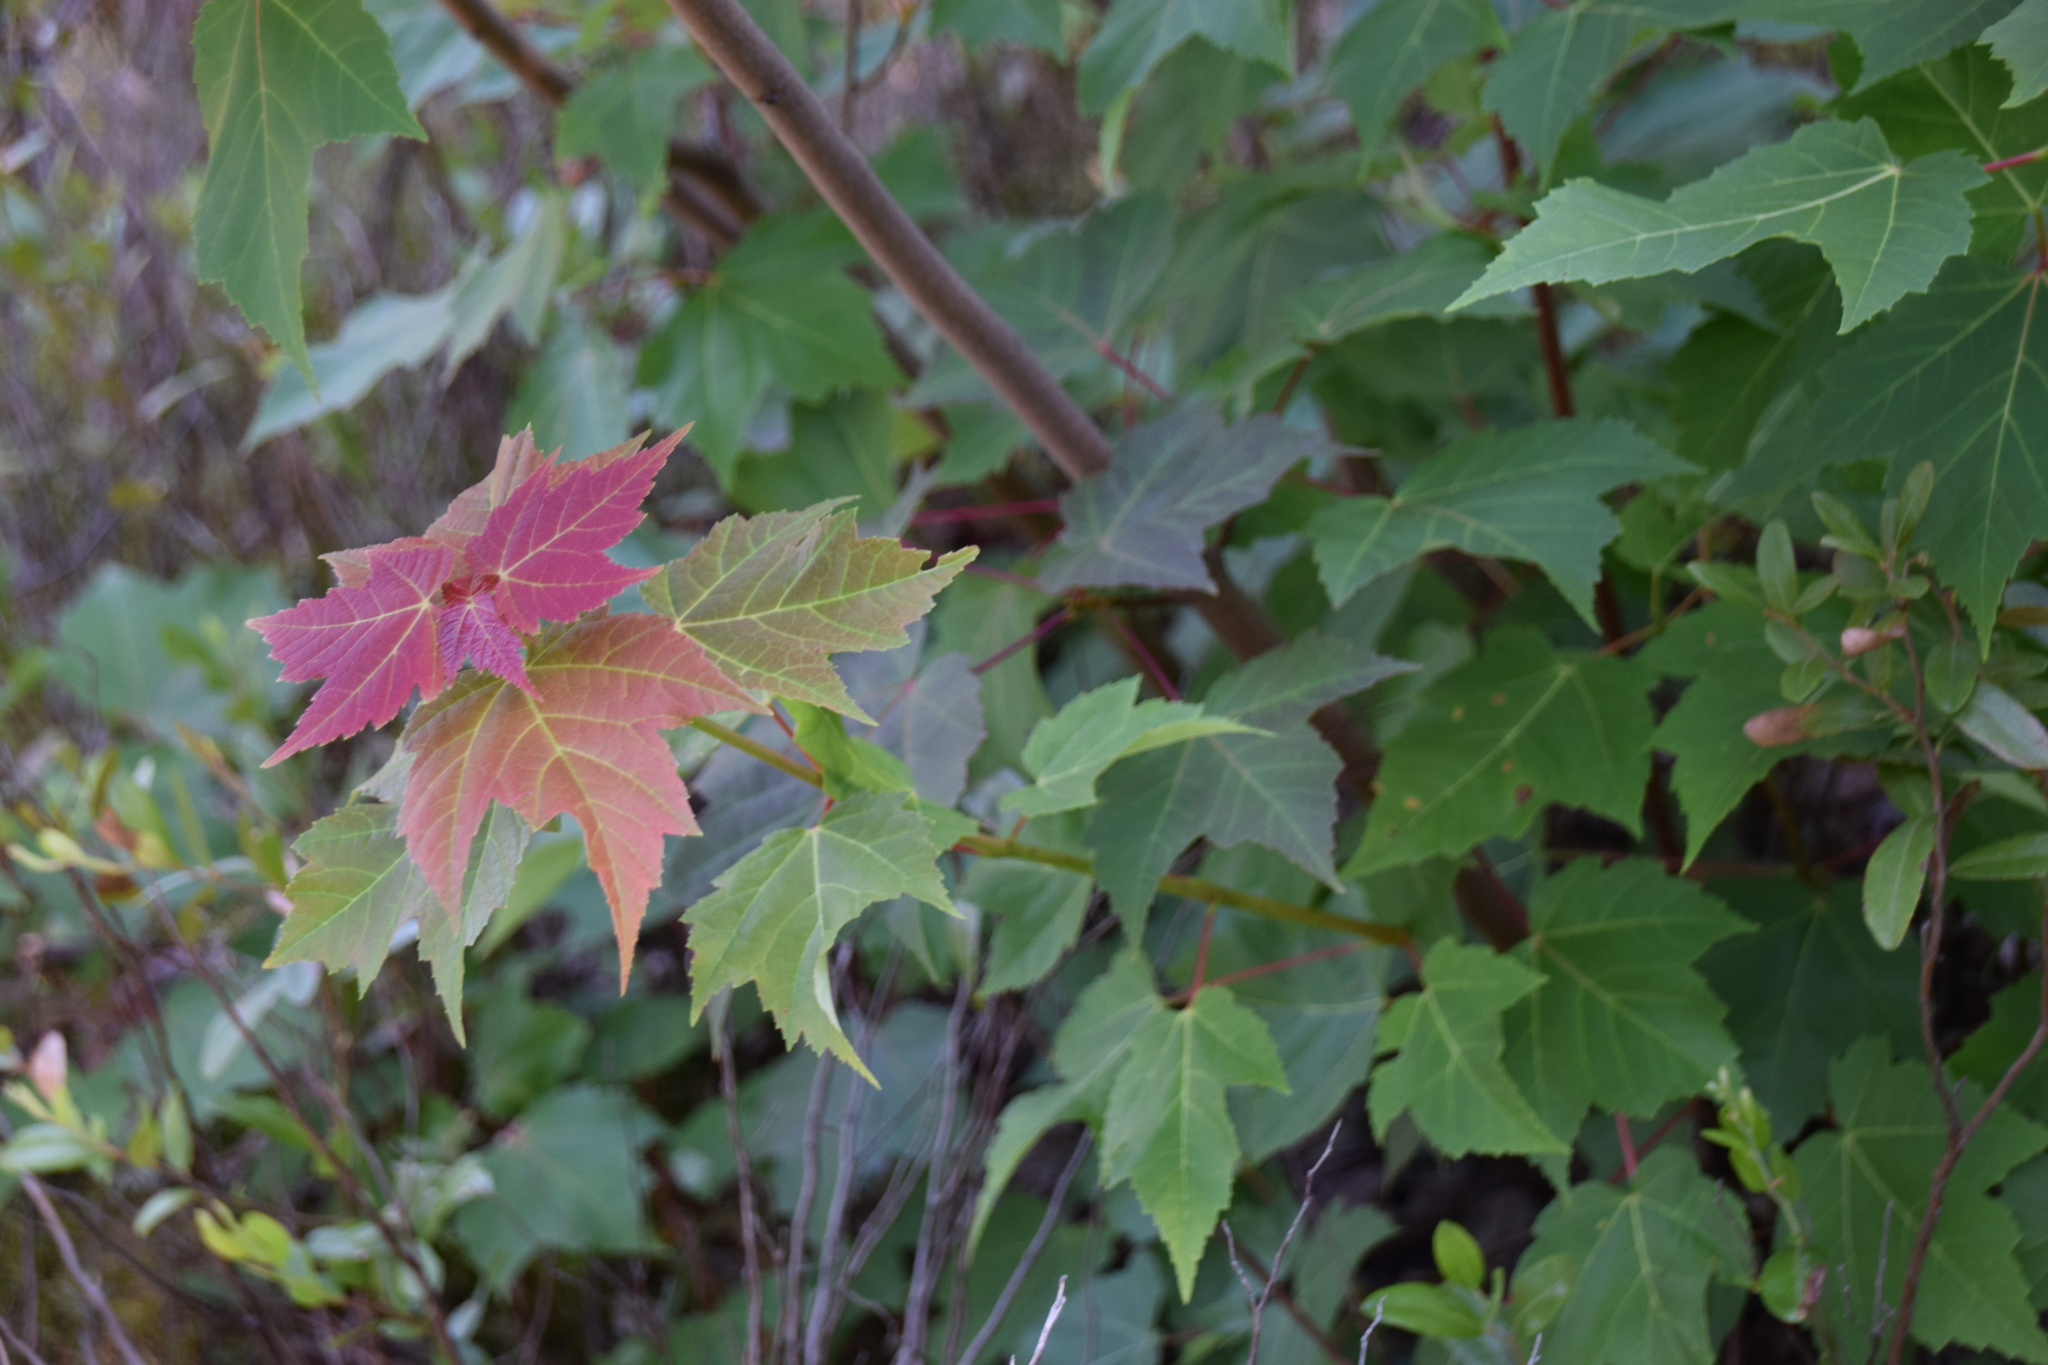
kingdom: Plantae
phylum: Tracheophyta
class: Magnoliopsida
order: Sapindales
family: Sapindaceae
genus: Acer
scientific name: Acer rubrum
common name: Red maple
